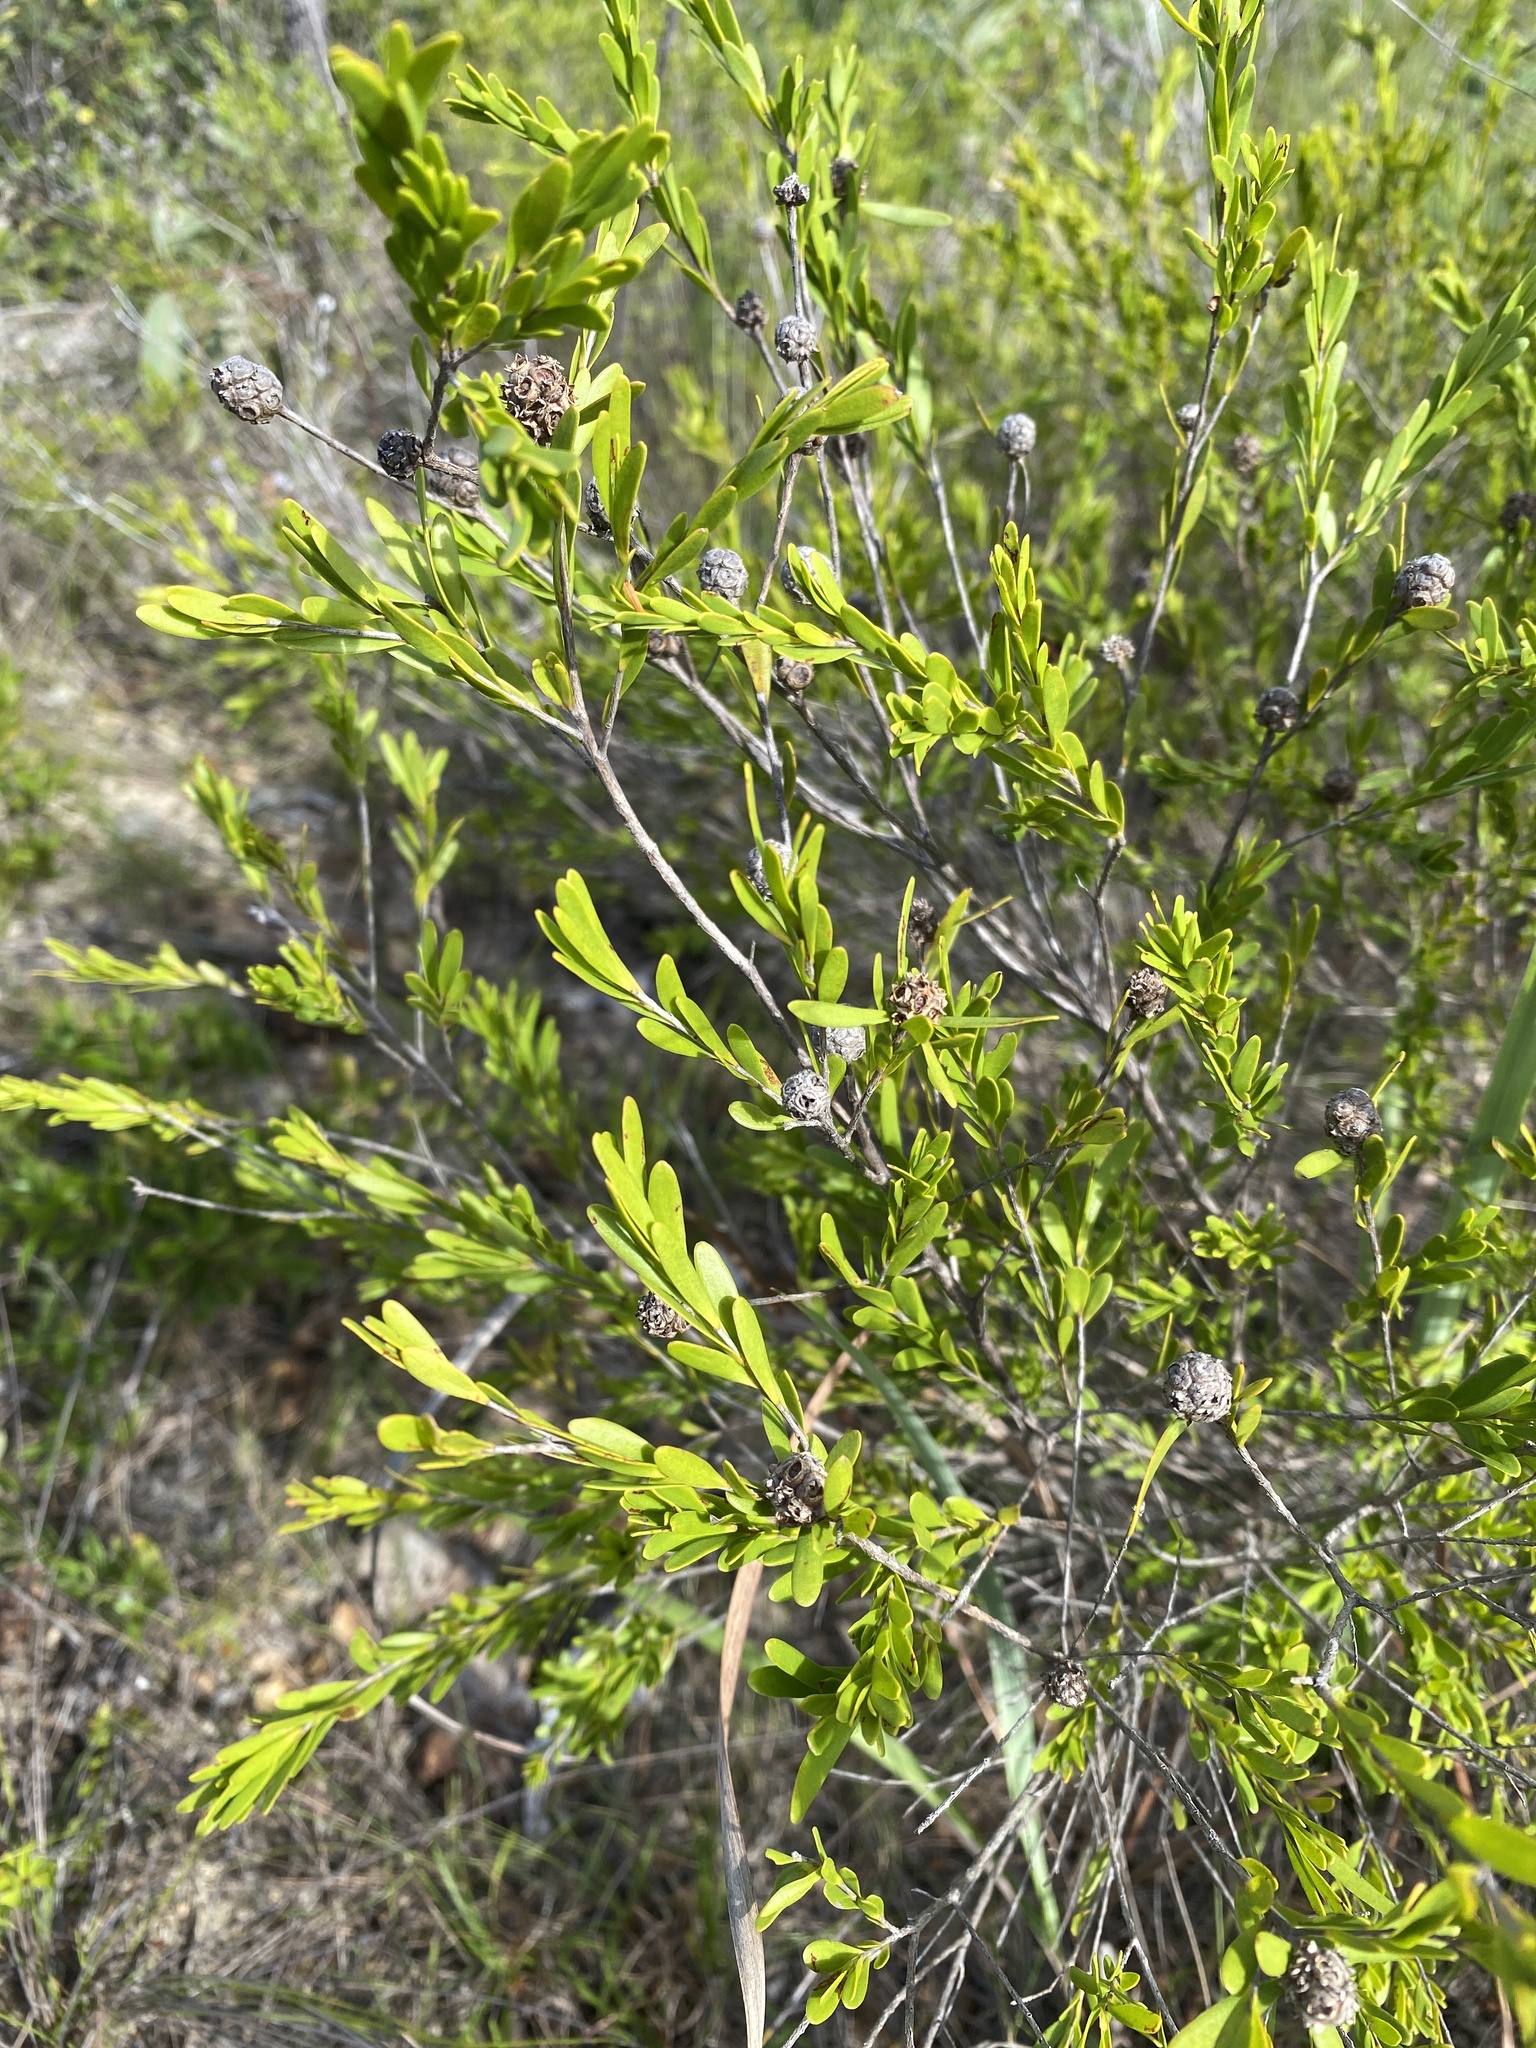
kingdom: Plantae
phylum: Tracheophyta
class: Magnoliopsida
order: Myrtales
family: Myrtaceae
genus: Asteromyrtus
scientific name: Asteromyrtus lysicephala
